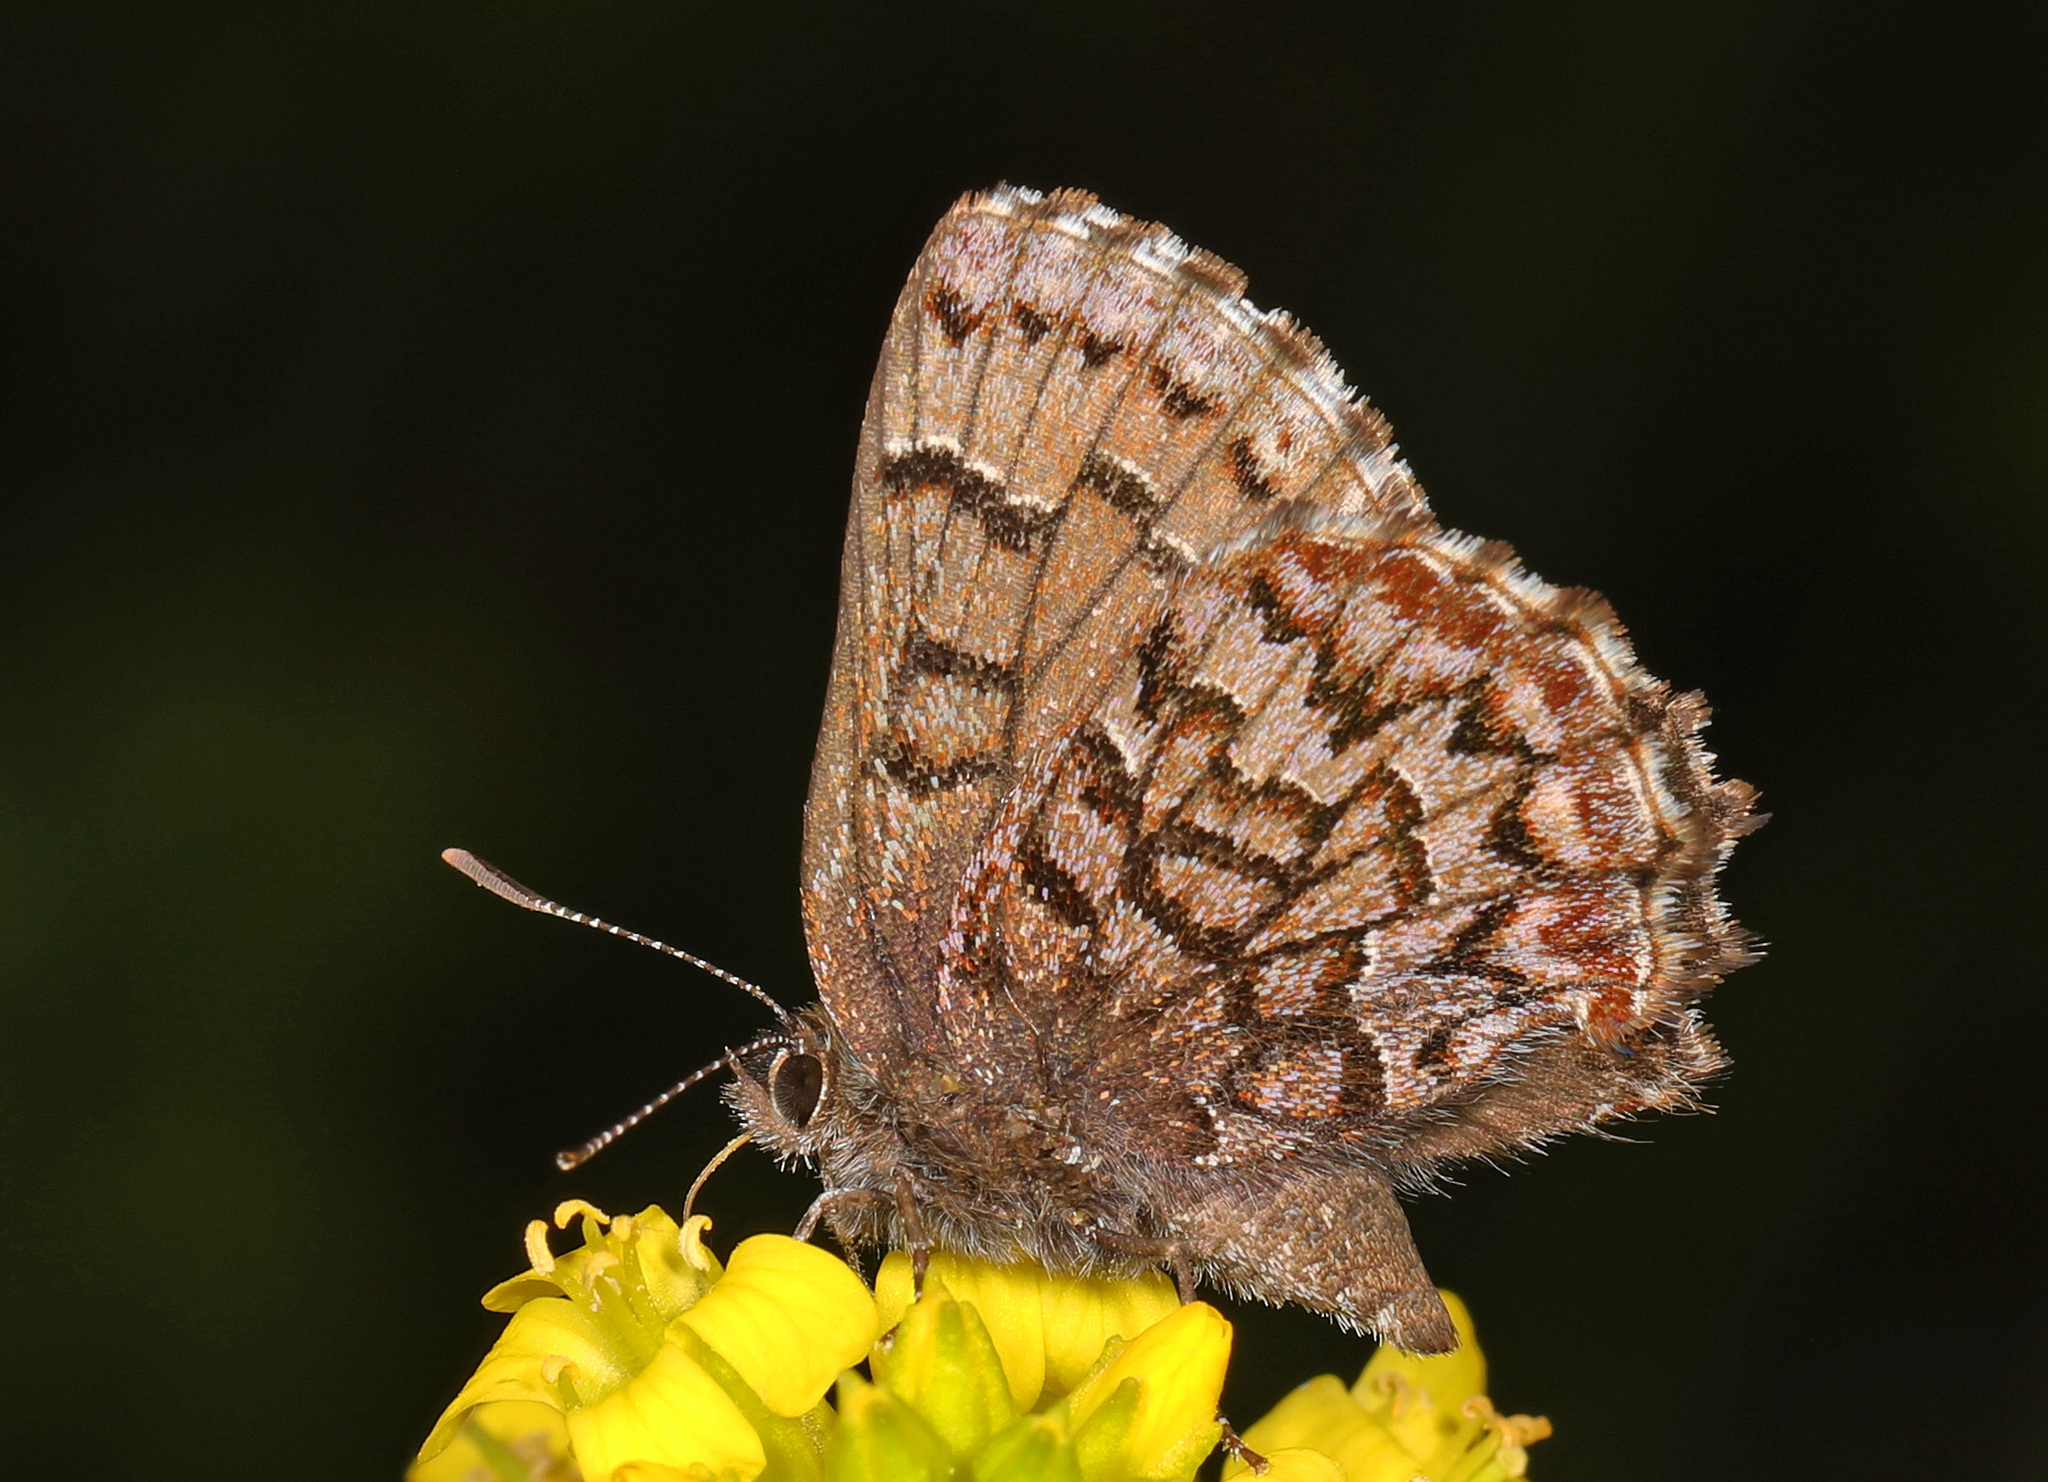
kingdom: Animalia
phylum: Arthropoda
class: Insecta
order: Lepidoptera
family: Lycaenidae
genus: Incisalia
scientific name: Incisalia niphon
